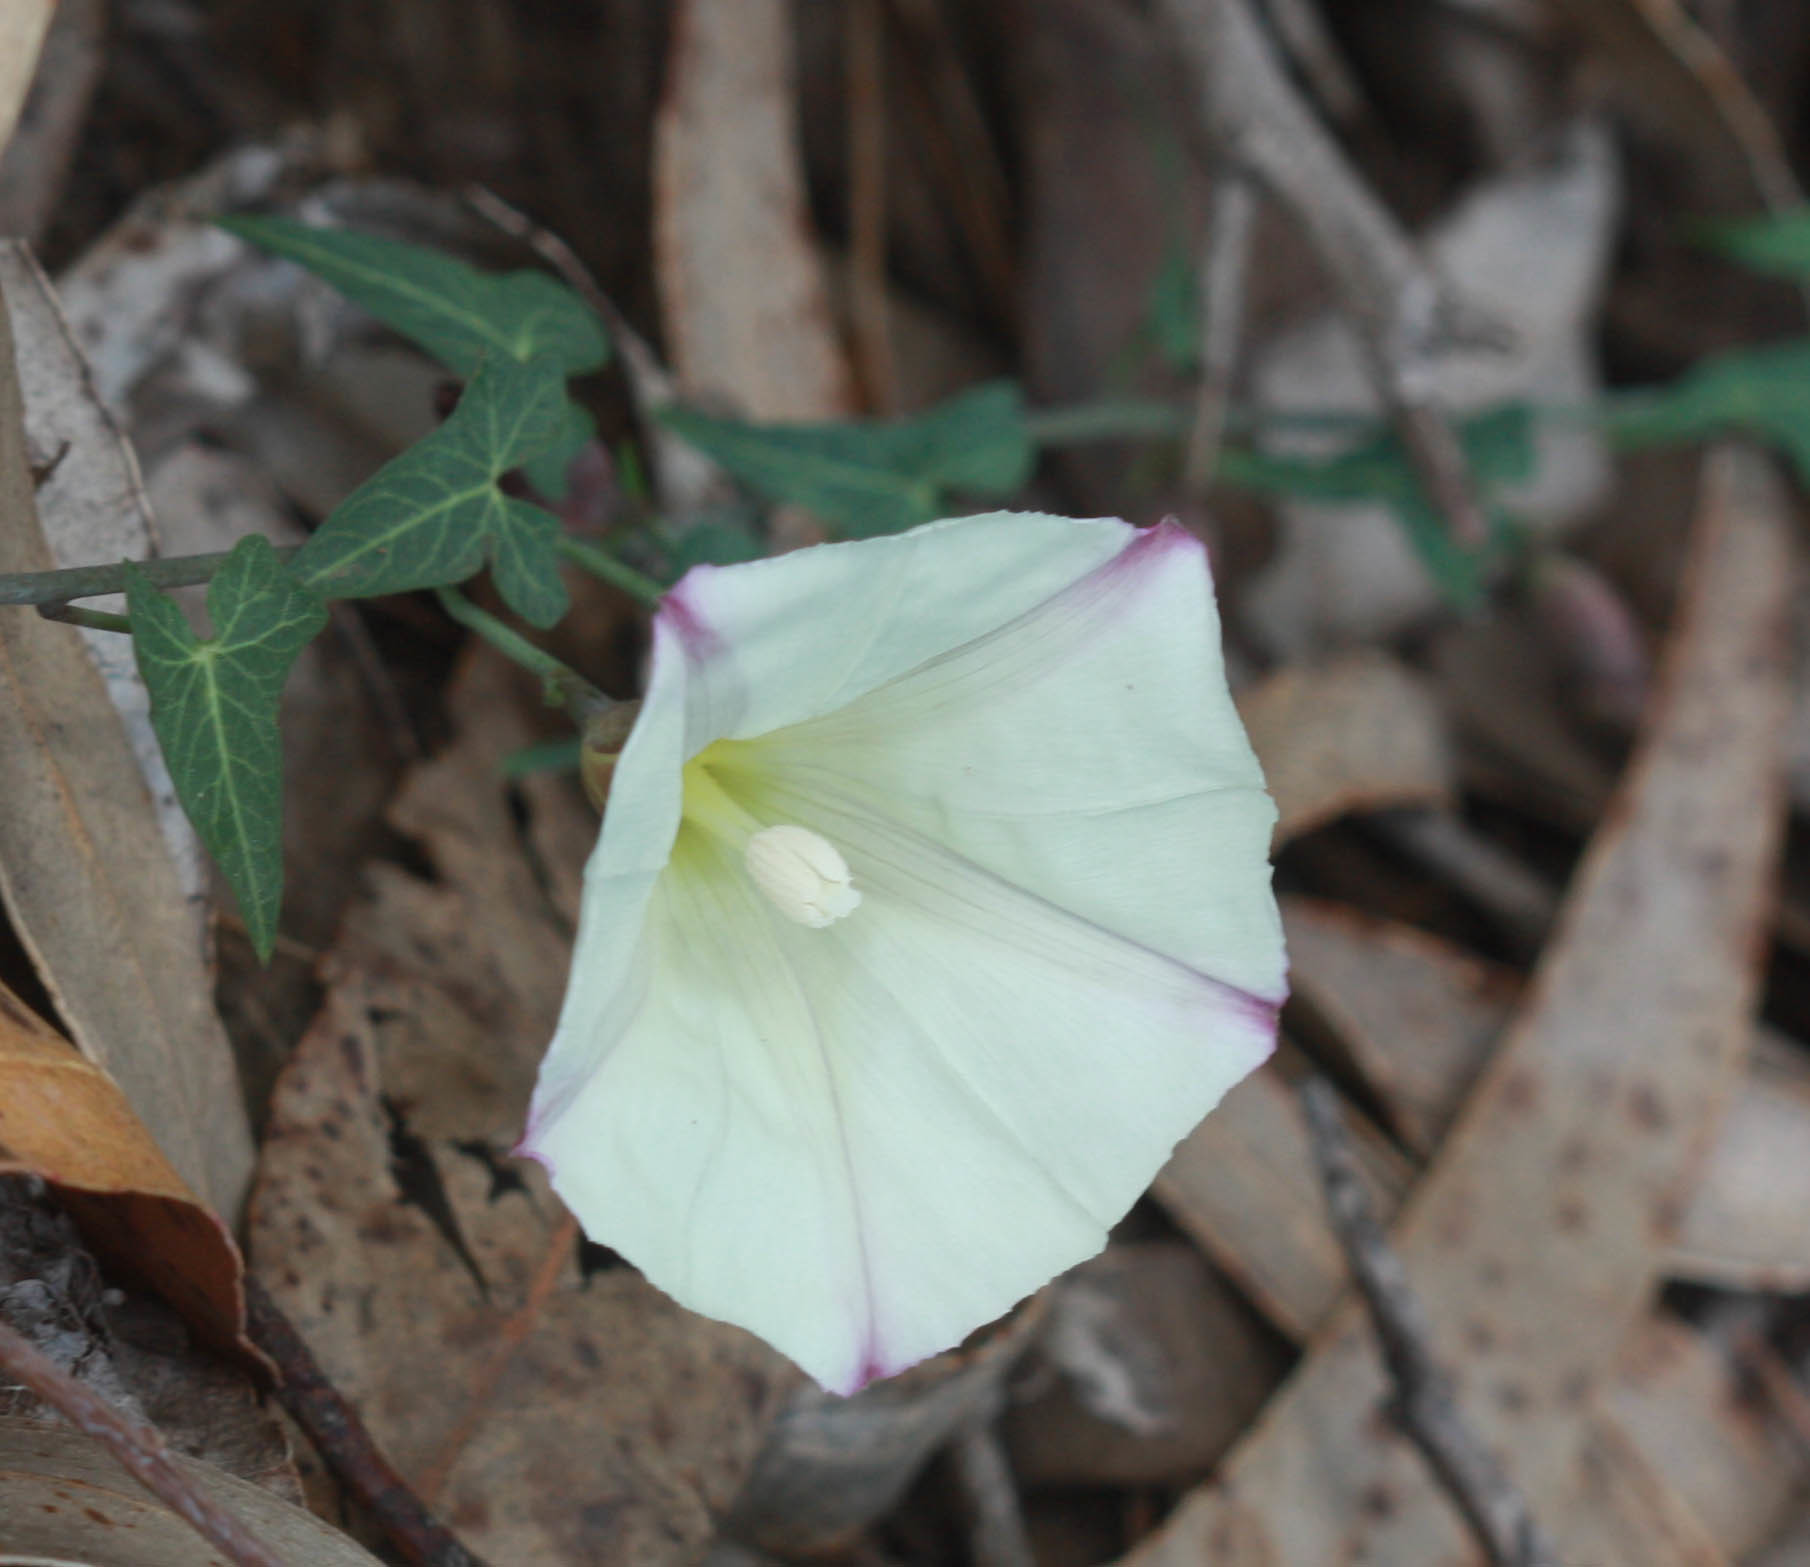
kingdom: Plantae
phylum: Tracheophyta
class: Magnoliopsida
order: Solanales
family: Convolvulaceae
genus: Calystegia
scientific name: Calystegia purpurata
